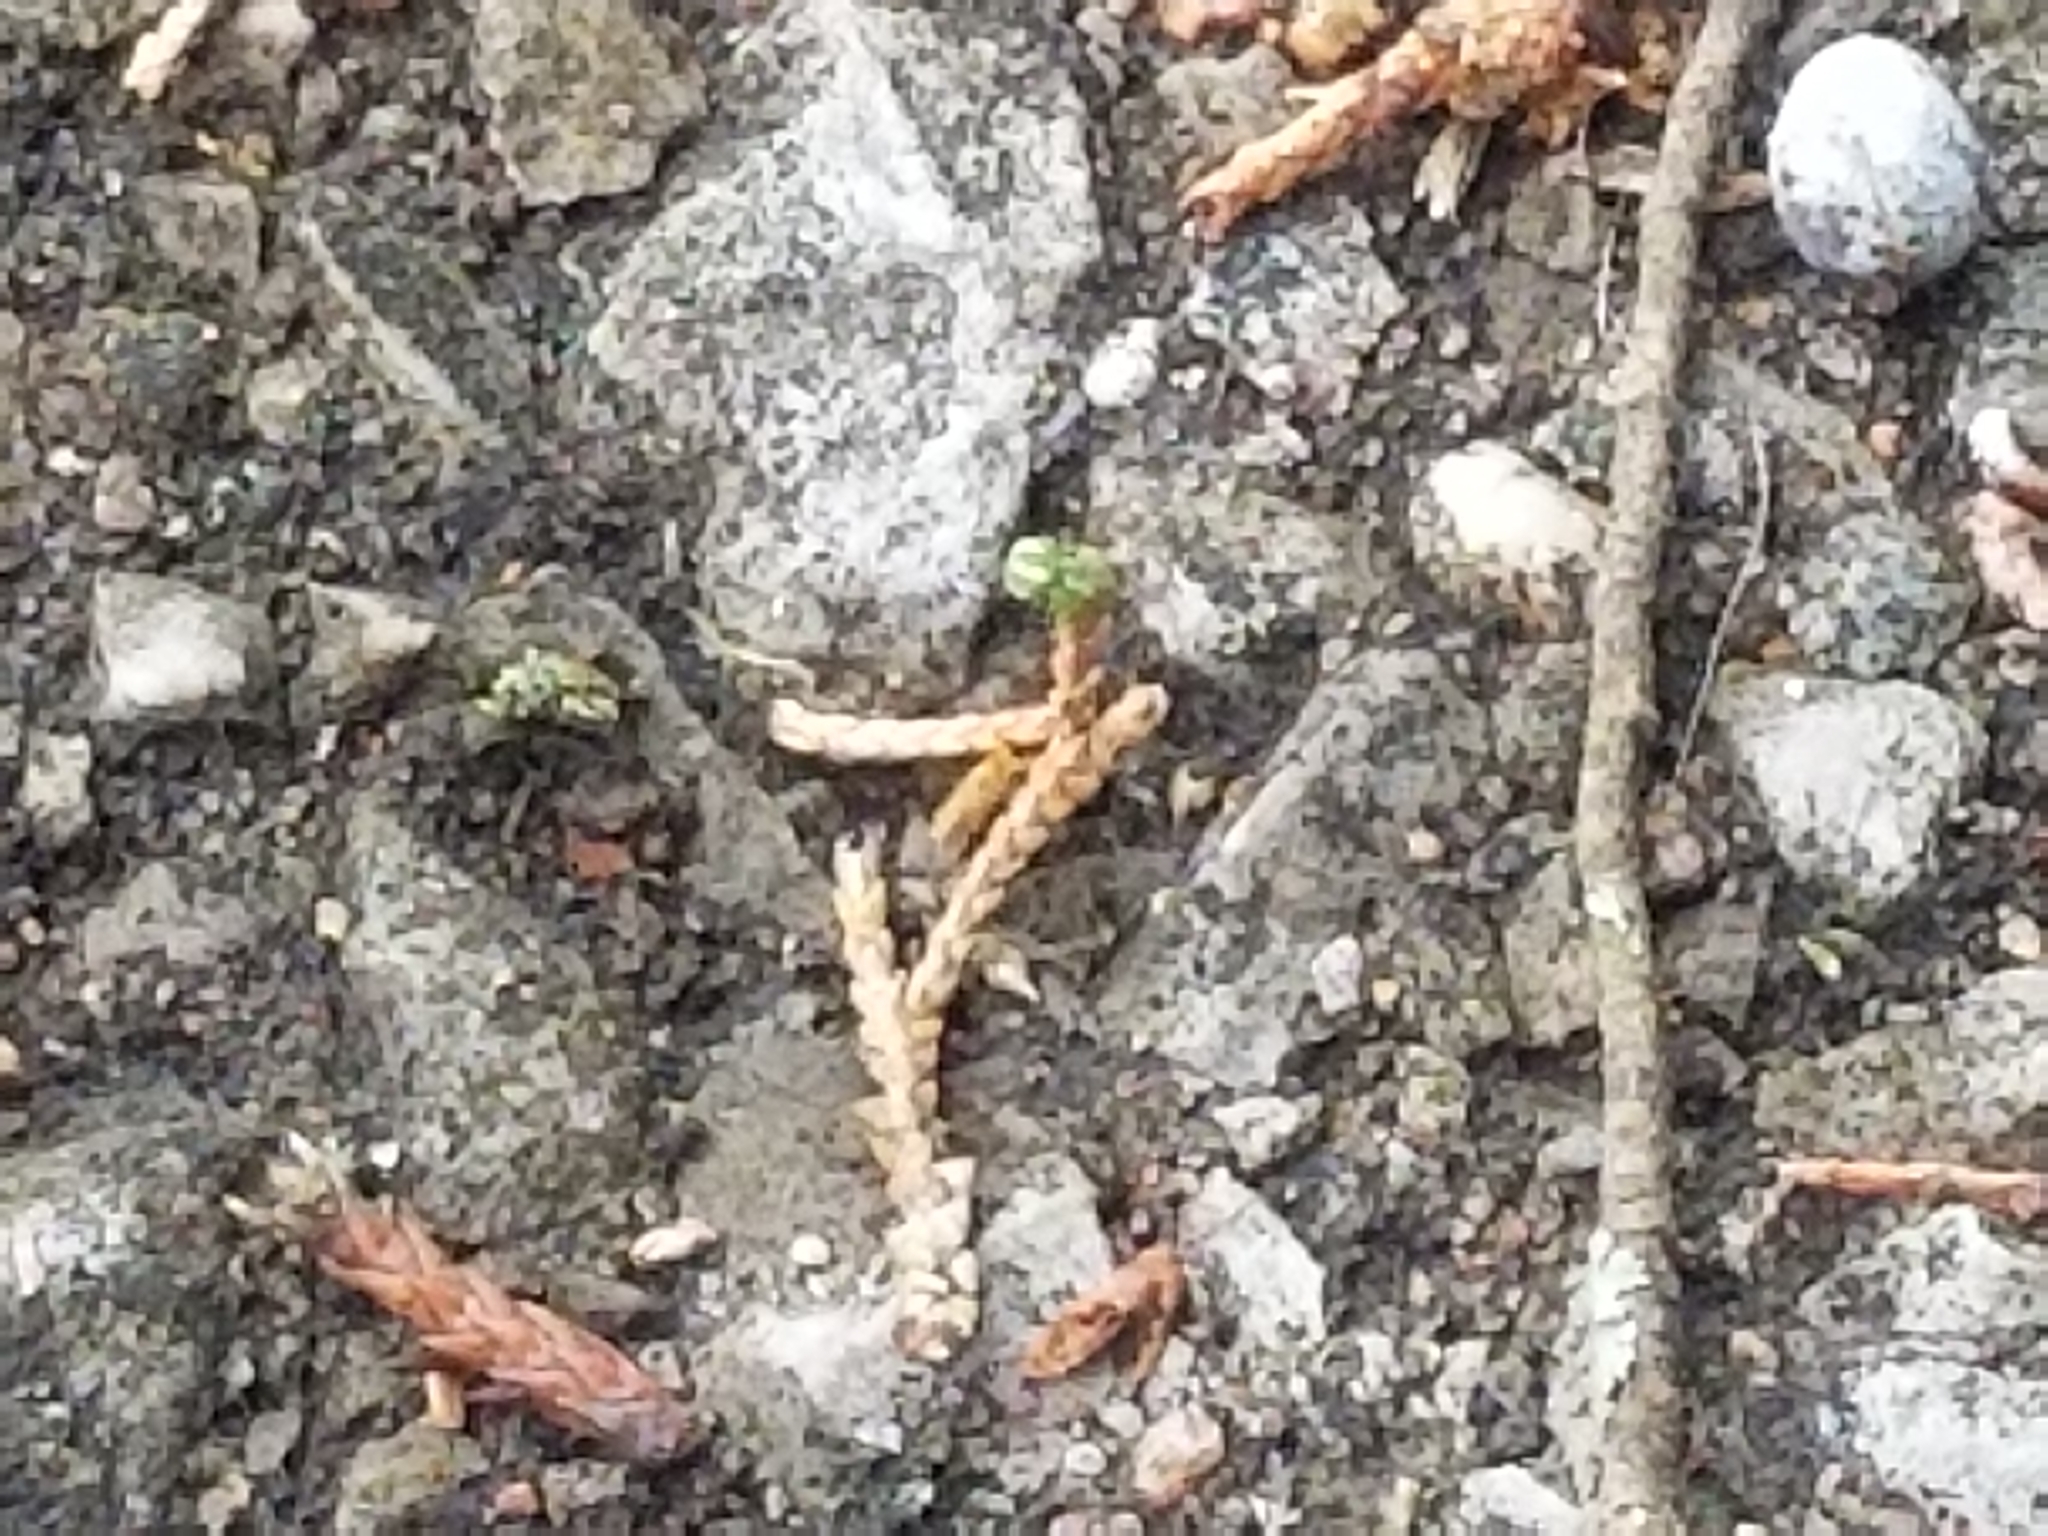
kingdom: Animalia
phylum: Arthropoda
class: Arachnida
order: Araneae
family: Araneidae
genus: Araneus
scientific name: Araneus juniperi
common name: Juniper orbweaver
